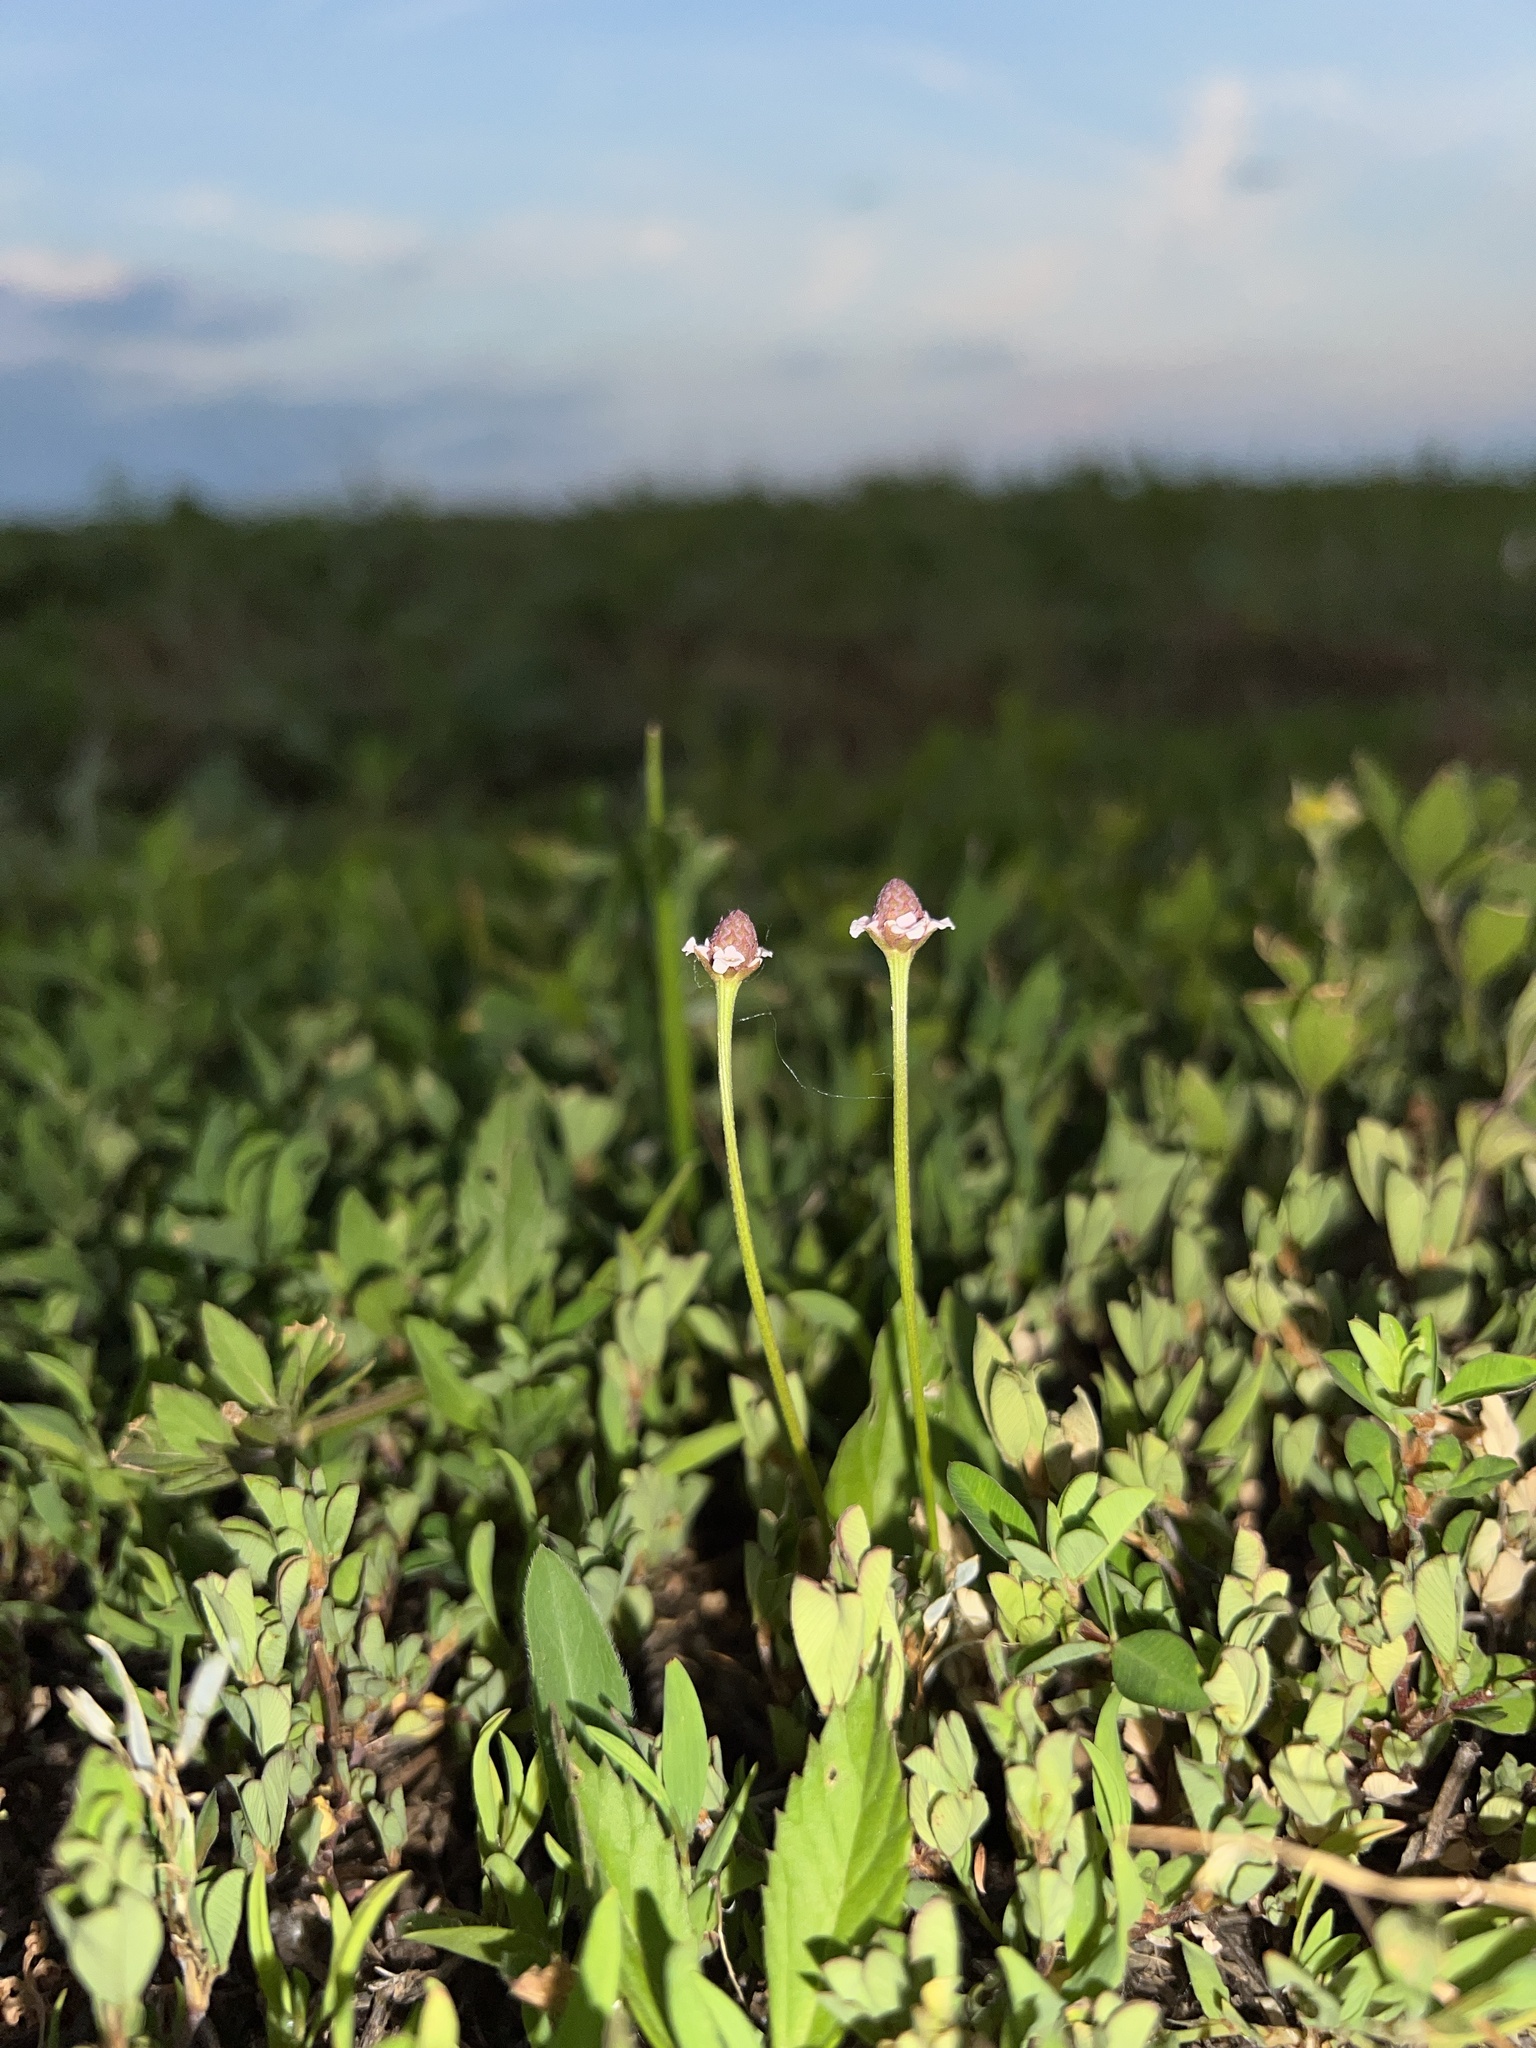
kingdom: Plantae
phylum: Tracheophyta
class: Magnoliopsida
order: Lamiales
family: Verbenaceae
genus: Phyla
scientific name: Phyla lanceolata
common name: Northern fogfruit
